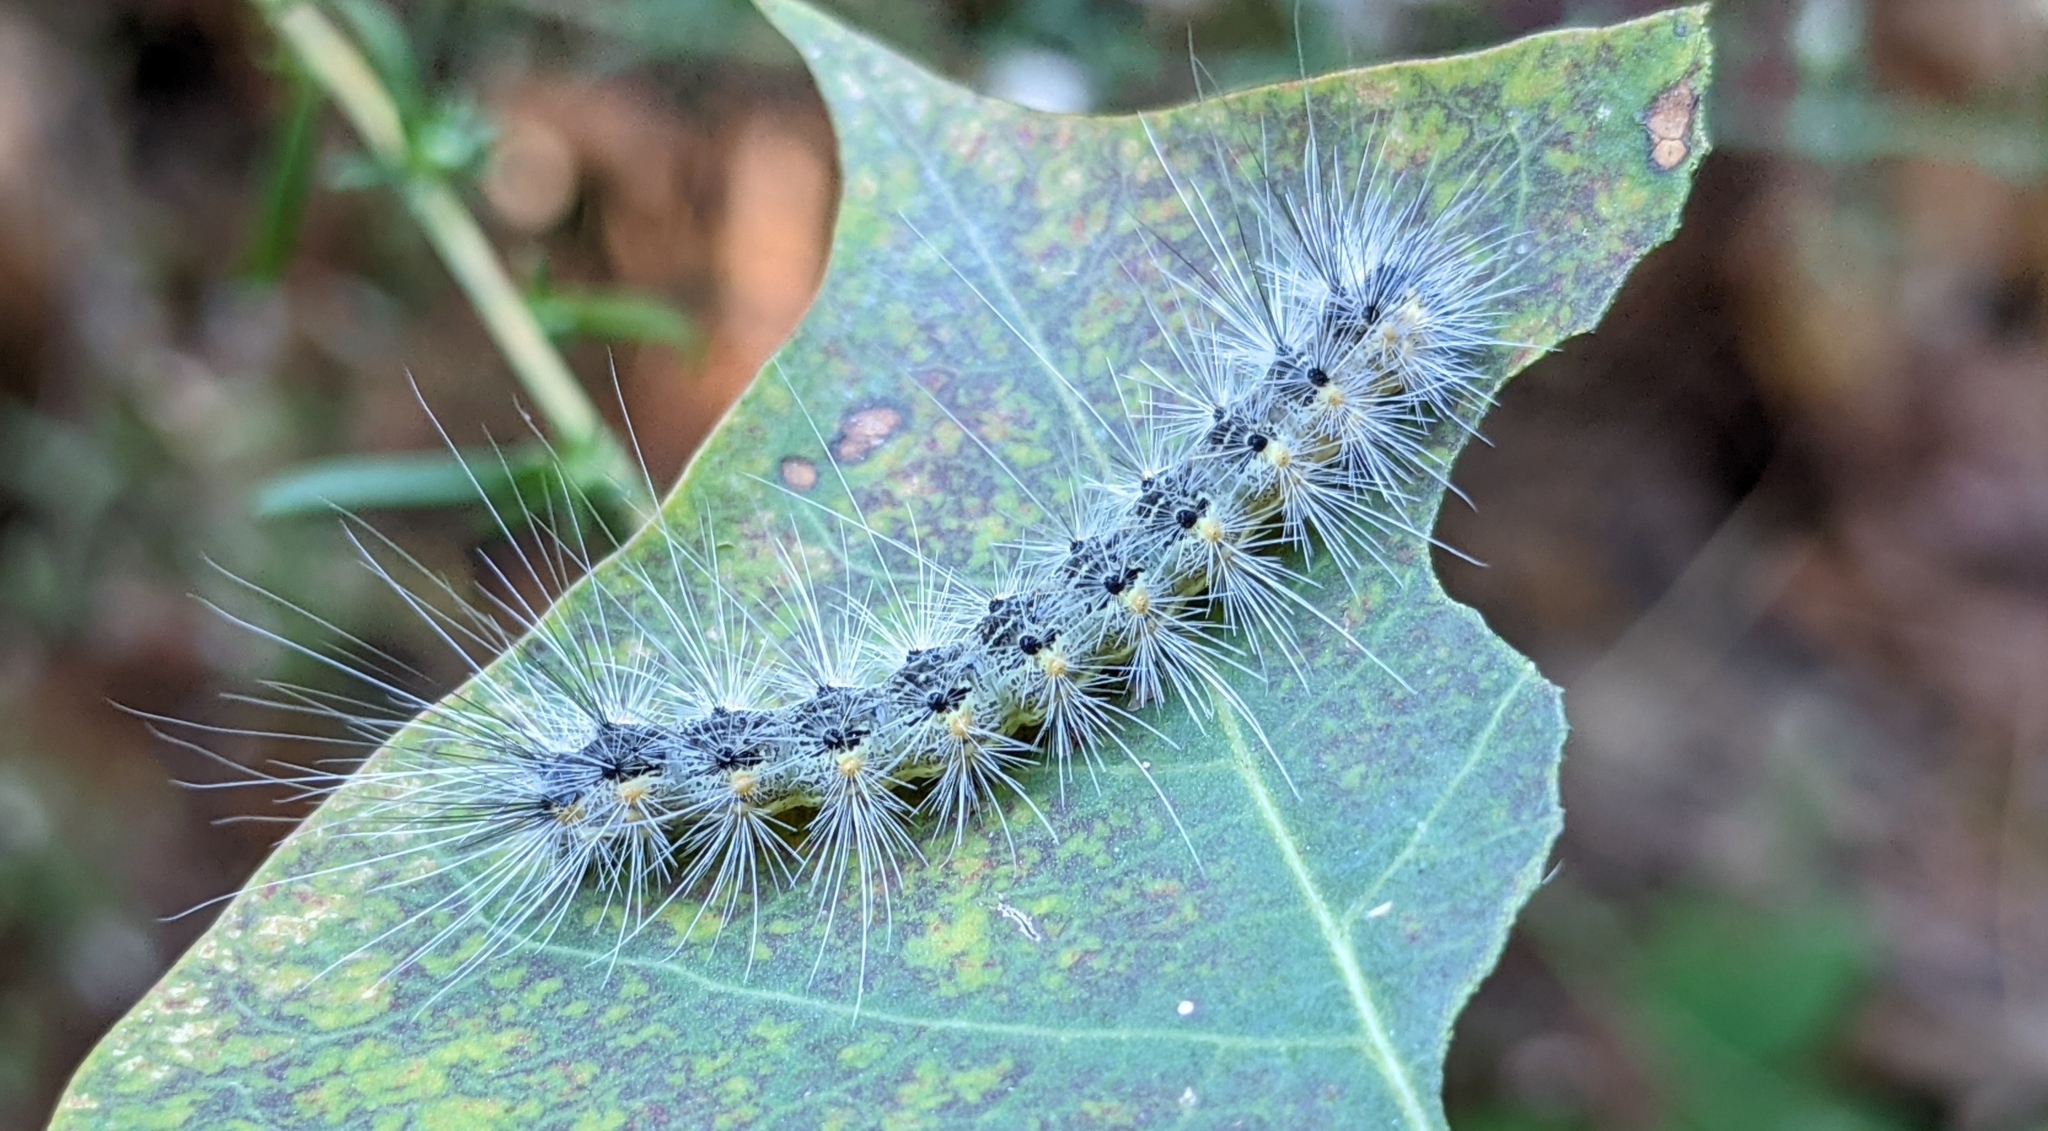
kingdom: Animalia
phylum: Arthropoda
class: Insecta
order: Lepidoptera
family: Erebidae
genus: Hyphantria
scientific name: Hyphantria cunea
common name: American white moth
